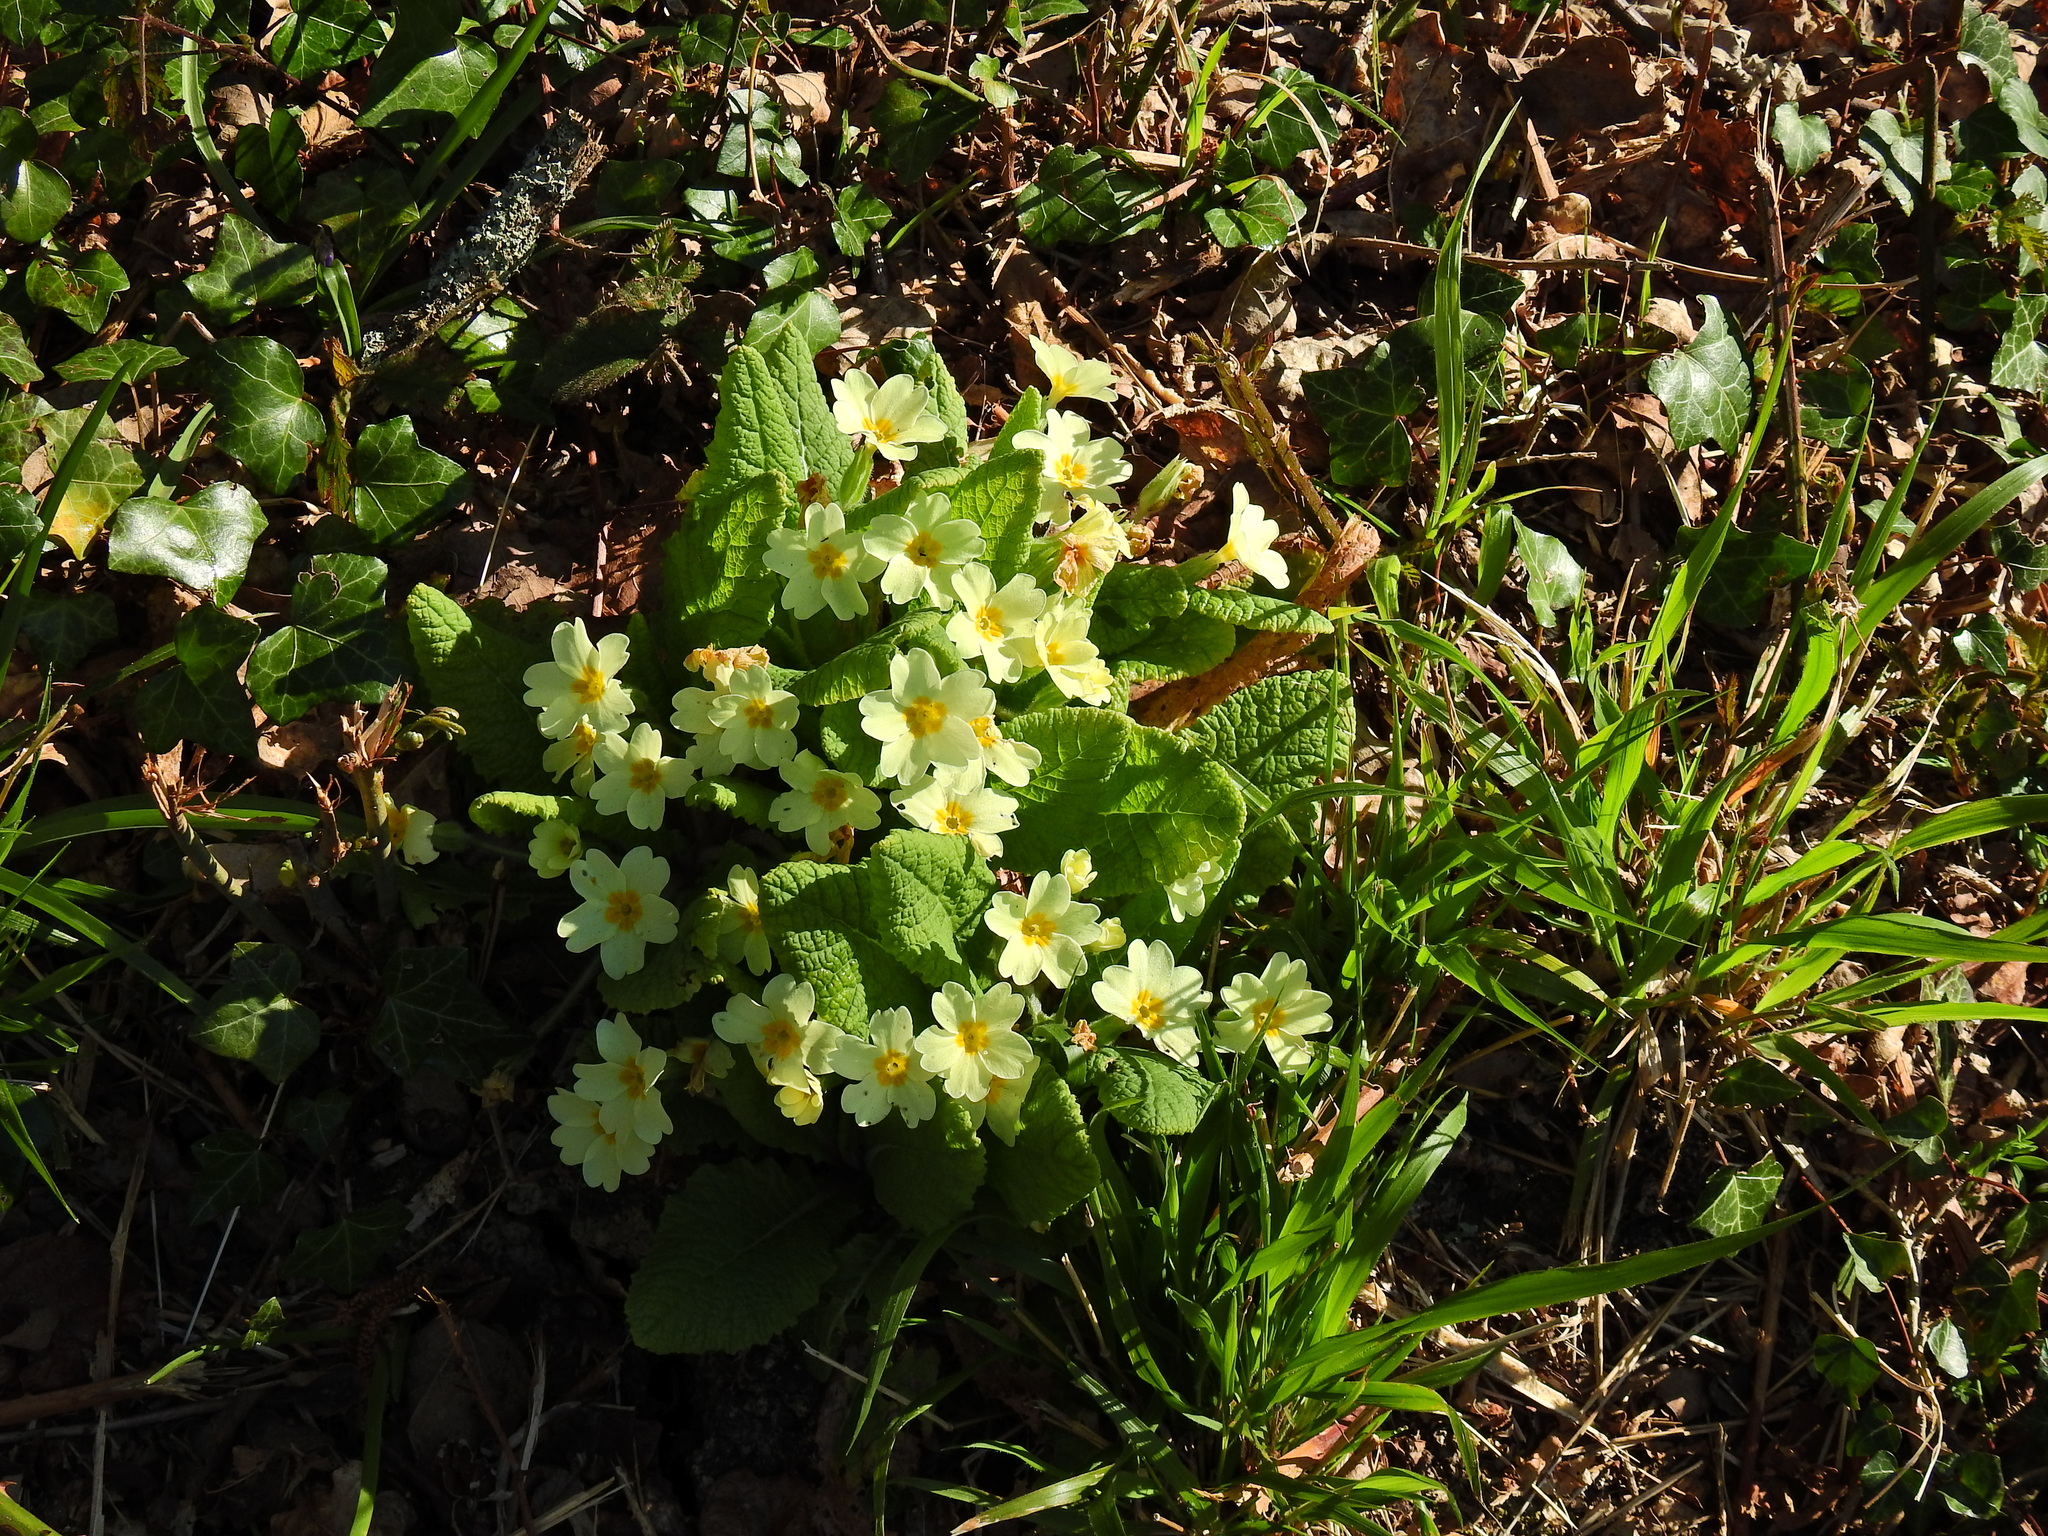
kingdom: Plantae
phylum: Tracheophyta
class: Magnoliopsida
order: Ericales
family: Primulaceae
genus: Primula
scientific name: Primula vulgaris
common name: Primrose
